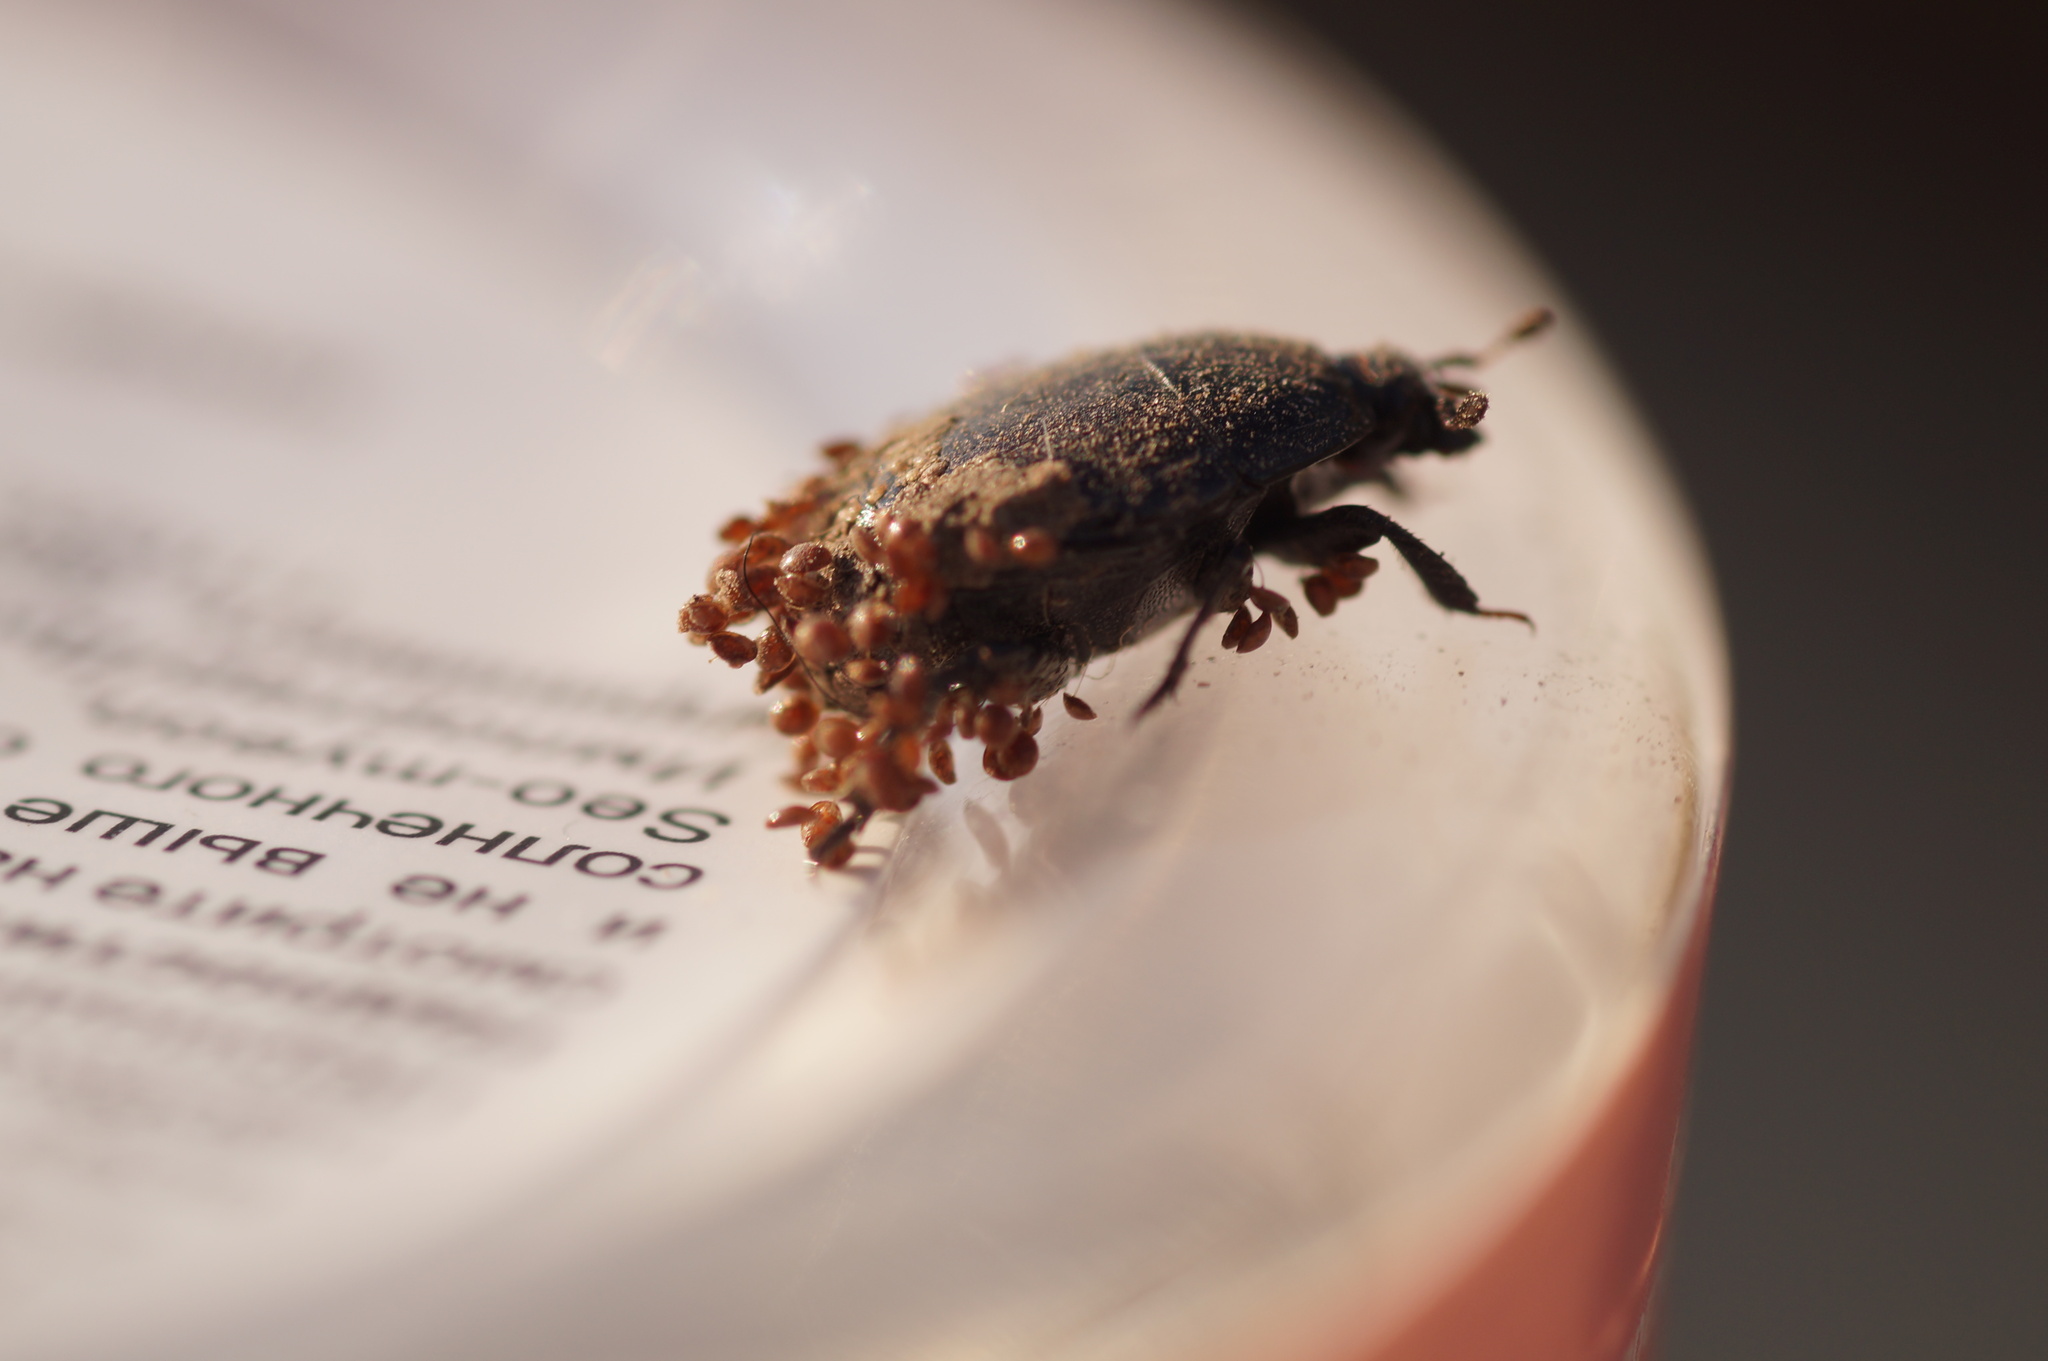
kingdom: Animalia
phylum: Arthropoda
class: Insecta
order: Coleoptera
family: Histeridae
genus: Margarinotus
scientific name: Margarinotus
